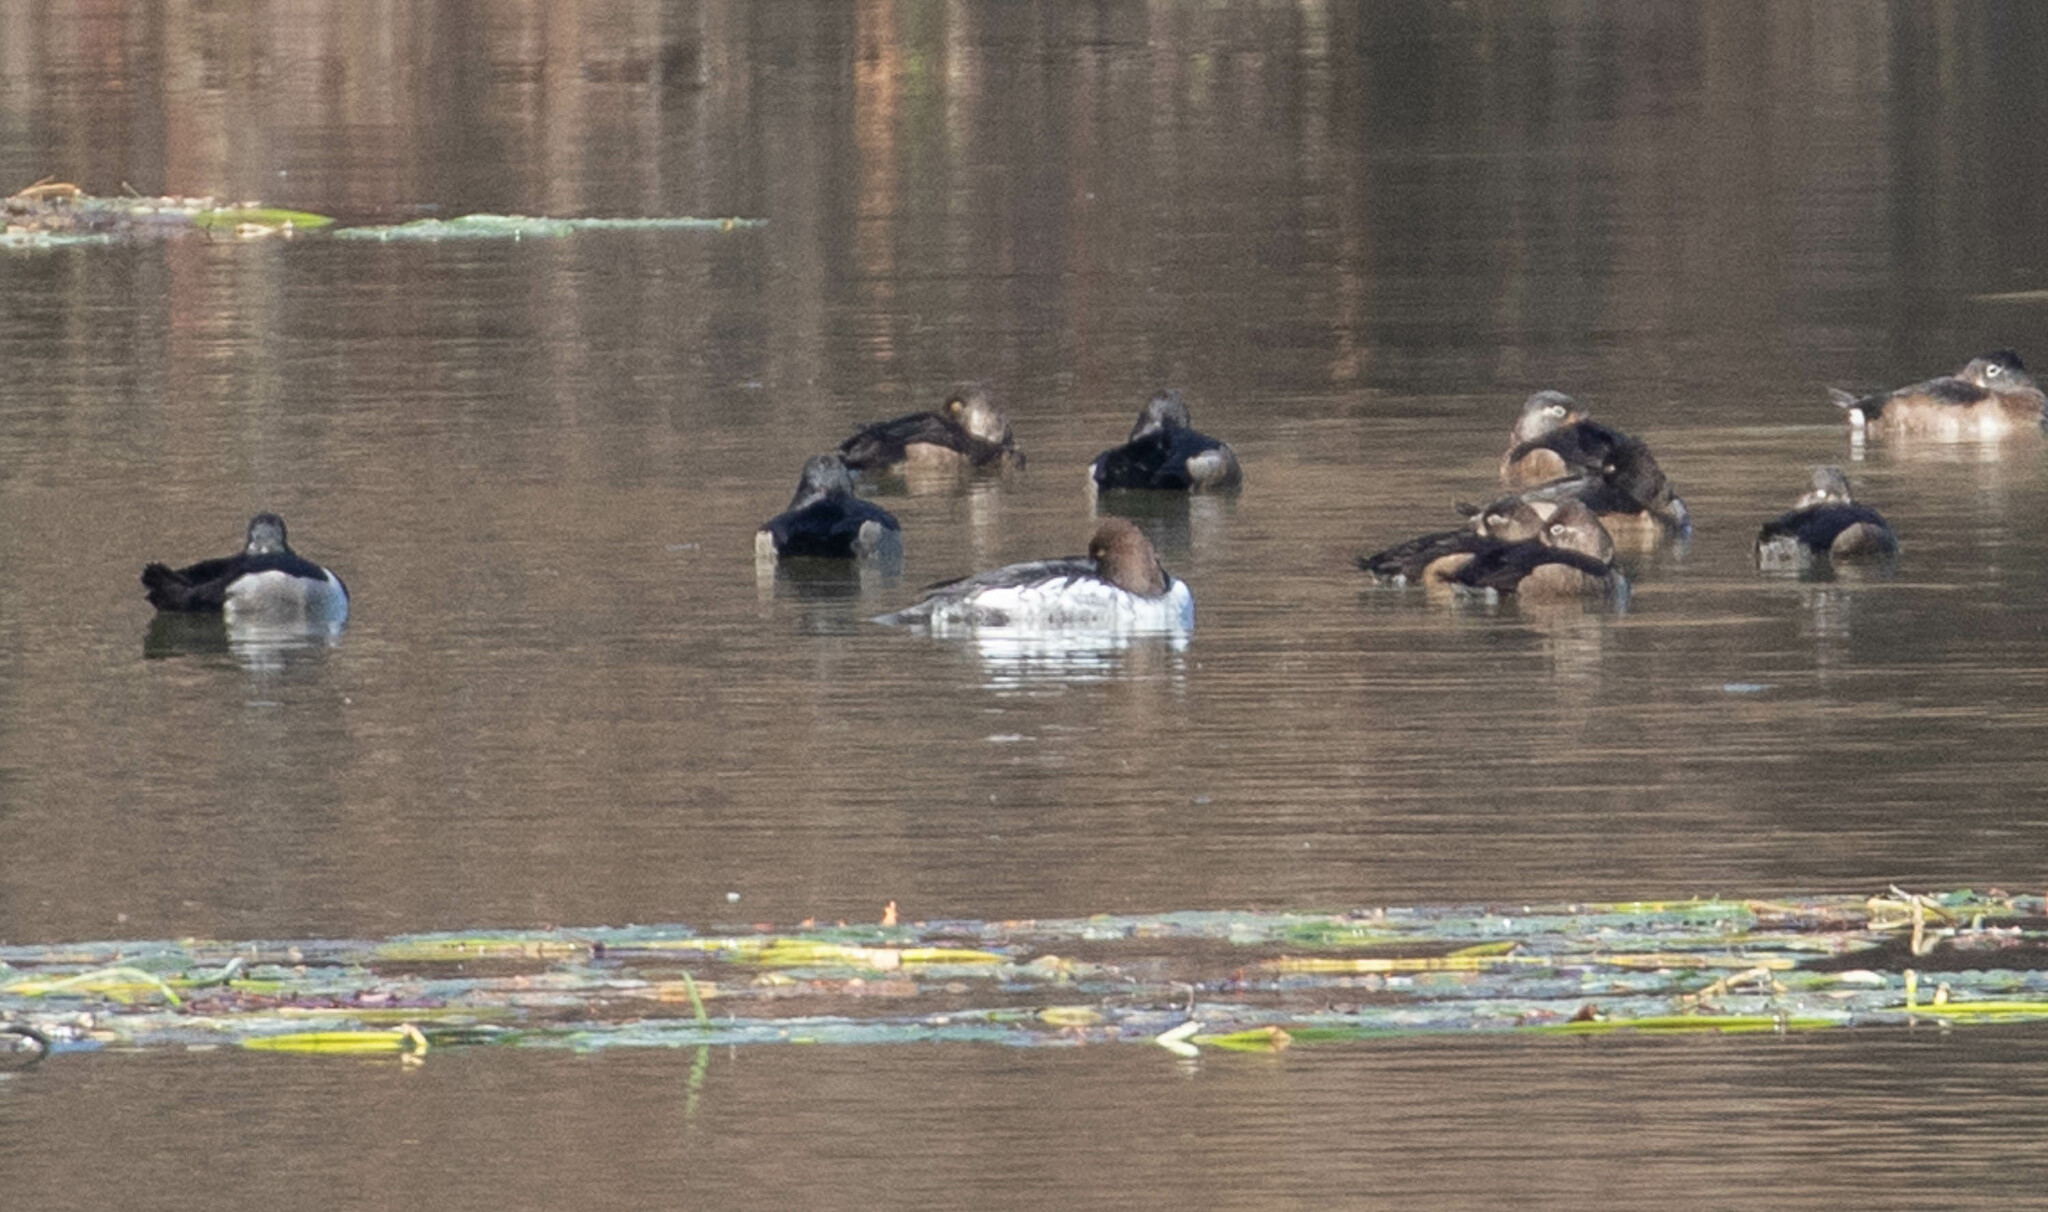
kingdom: Animalia
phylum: Chordata
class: Aves
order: Anseriformes
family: Anatidae
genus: Bucephala
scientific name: Bucephala clangula
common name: Common goldeneye
